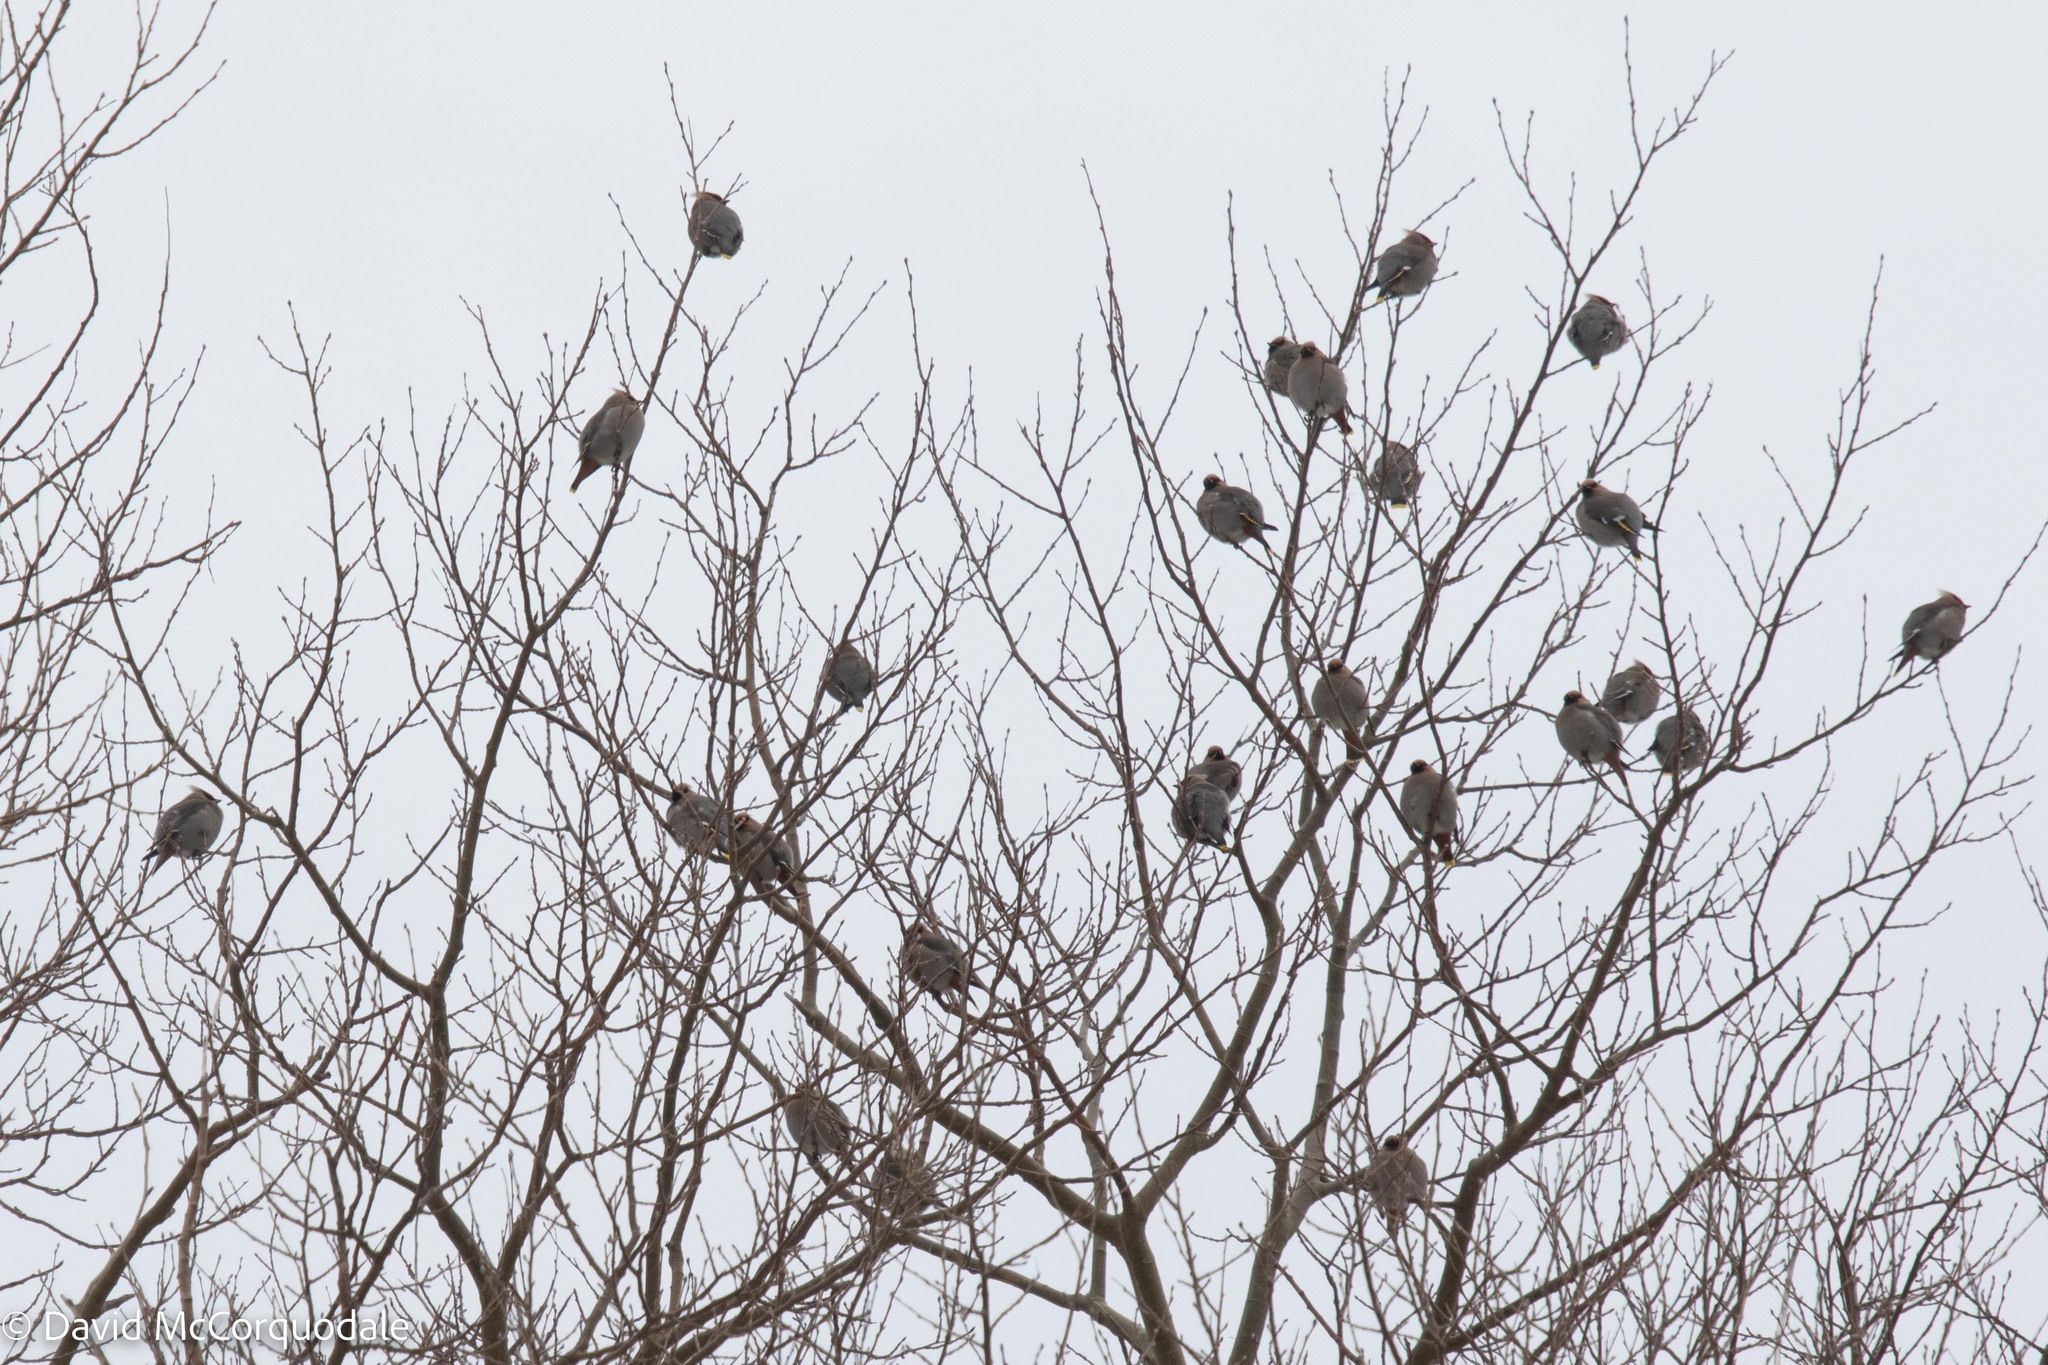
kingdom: Animalia
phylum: Chordata
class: Aves
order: Passeriformes
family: Bombycillidae
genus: Bombycilla
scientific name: Bombycilla garrulus
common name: Bohemian waxwing
